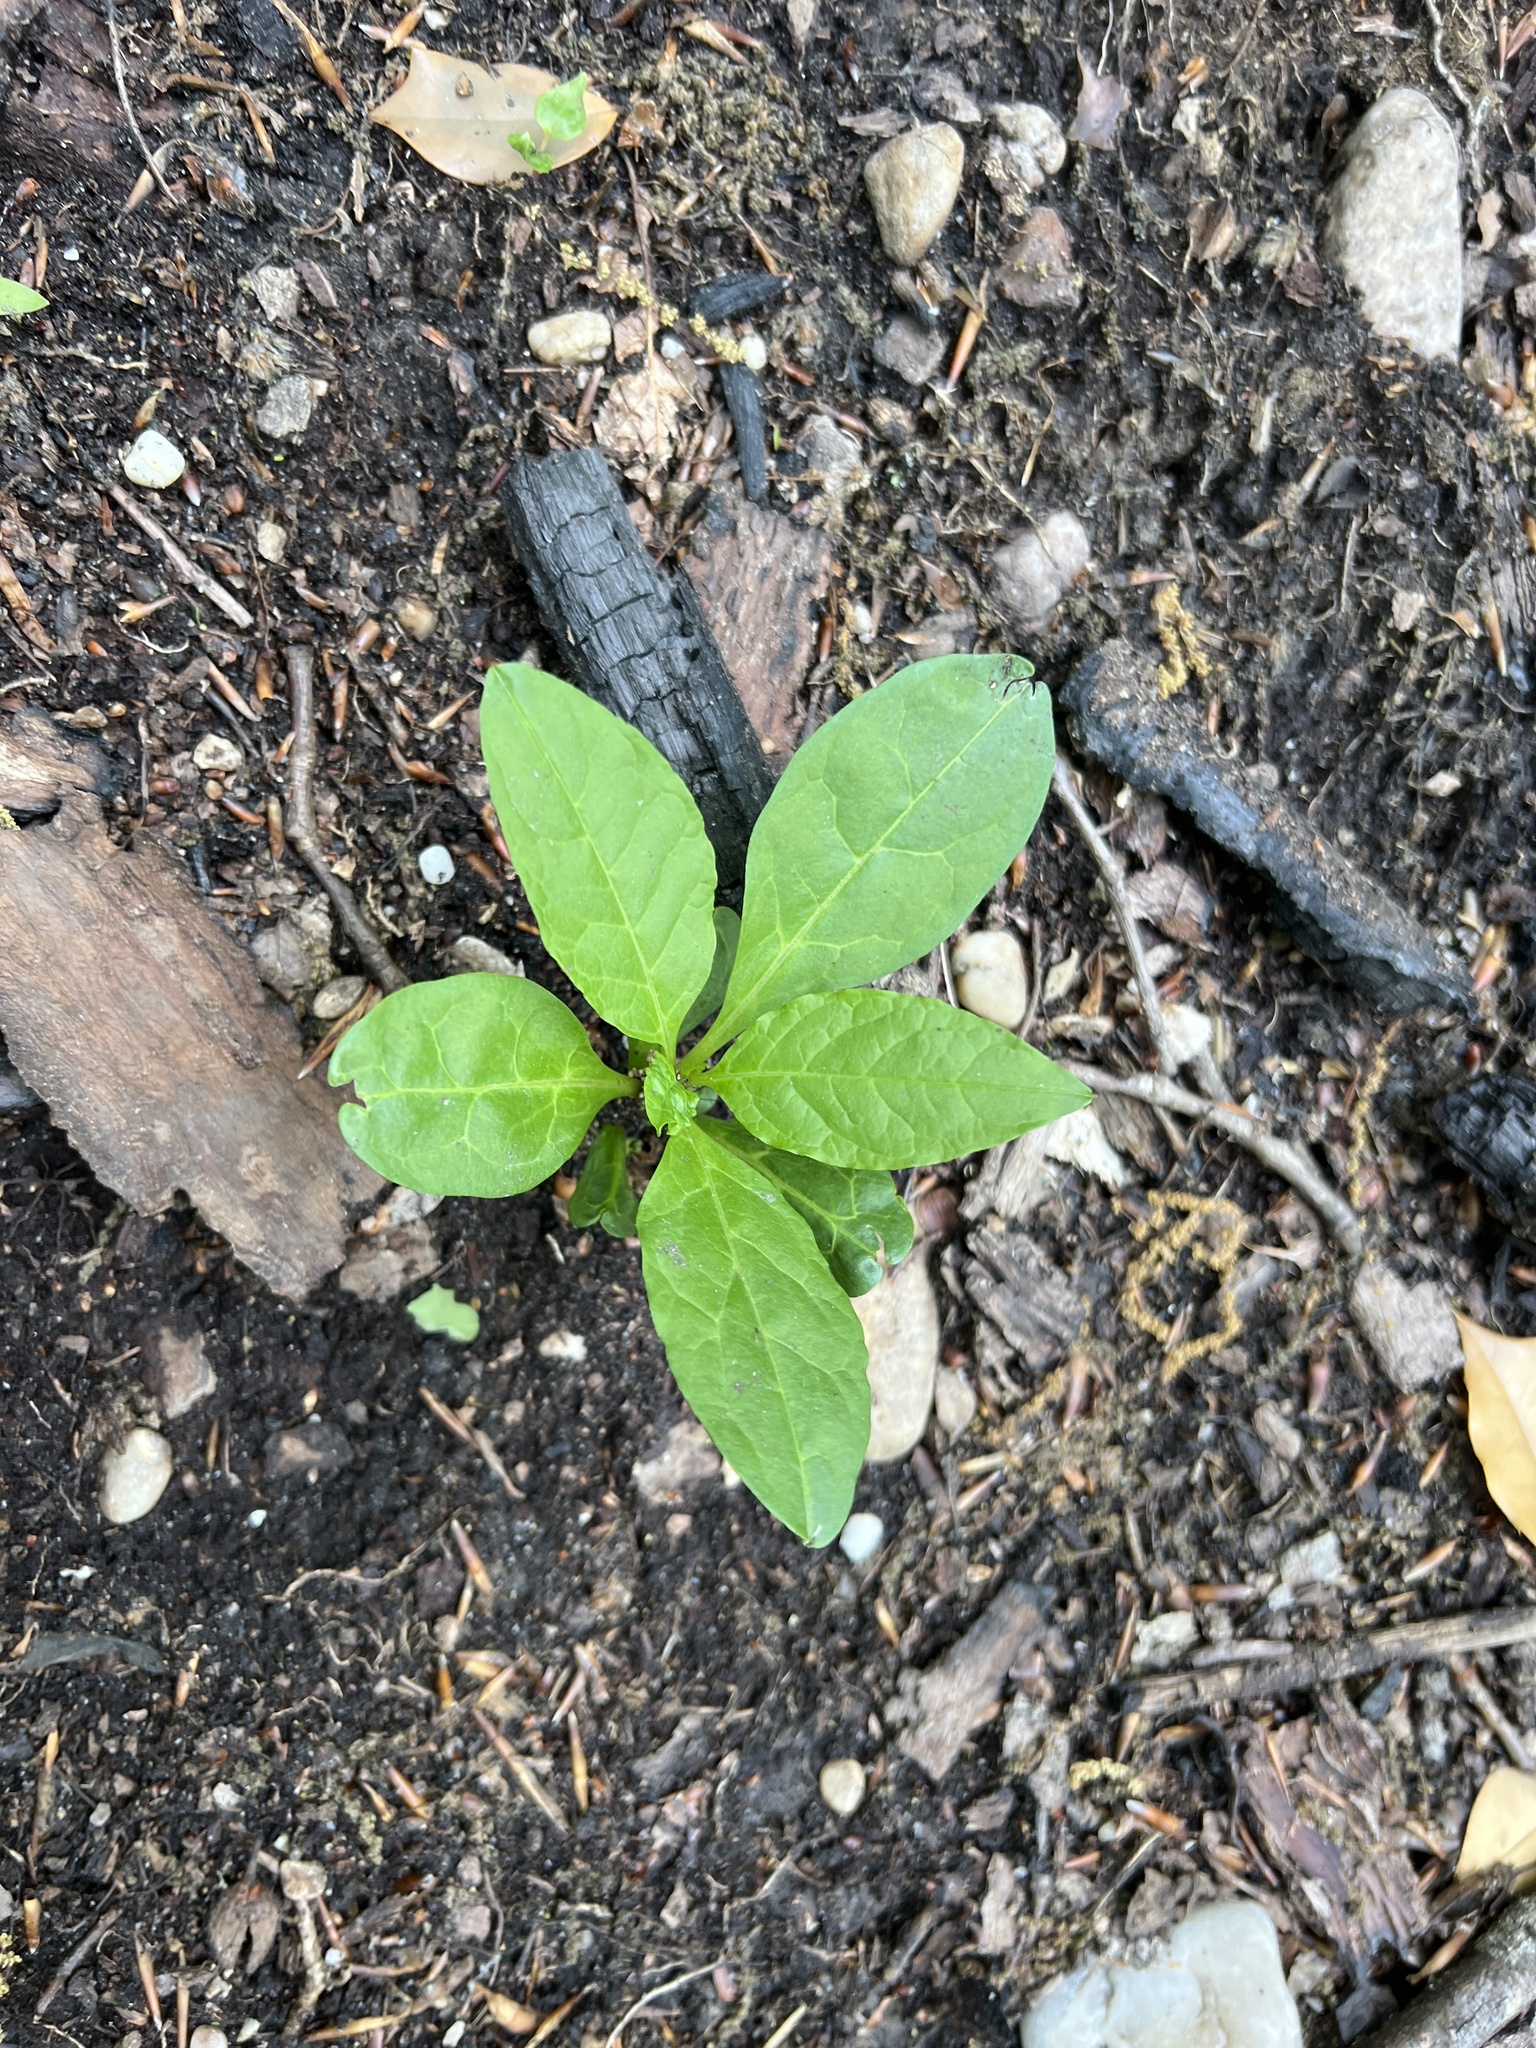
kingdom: Plantae
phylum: Tracheophyta
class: Magnoliopsida
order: Caryophyllales
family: Phytolaccaceae
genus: Phytolacca
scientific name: Phytolacca americana
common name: American pokeweed
